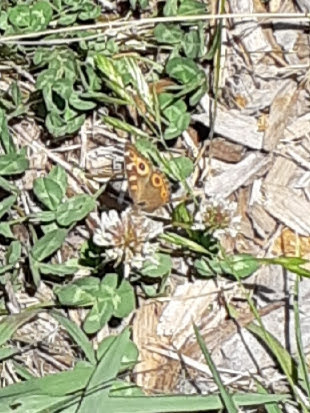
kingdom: Animalia
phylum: Arthropoda
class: Insecta
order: Lepidoptera
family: Nymphalidae
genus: Junonia
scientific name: Junonia villida
